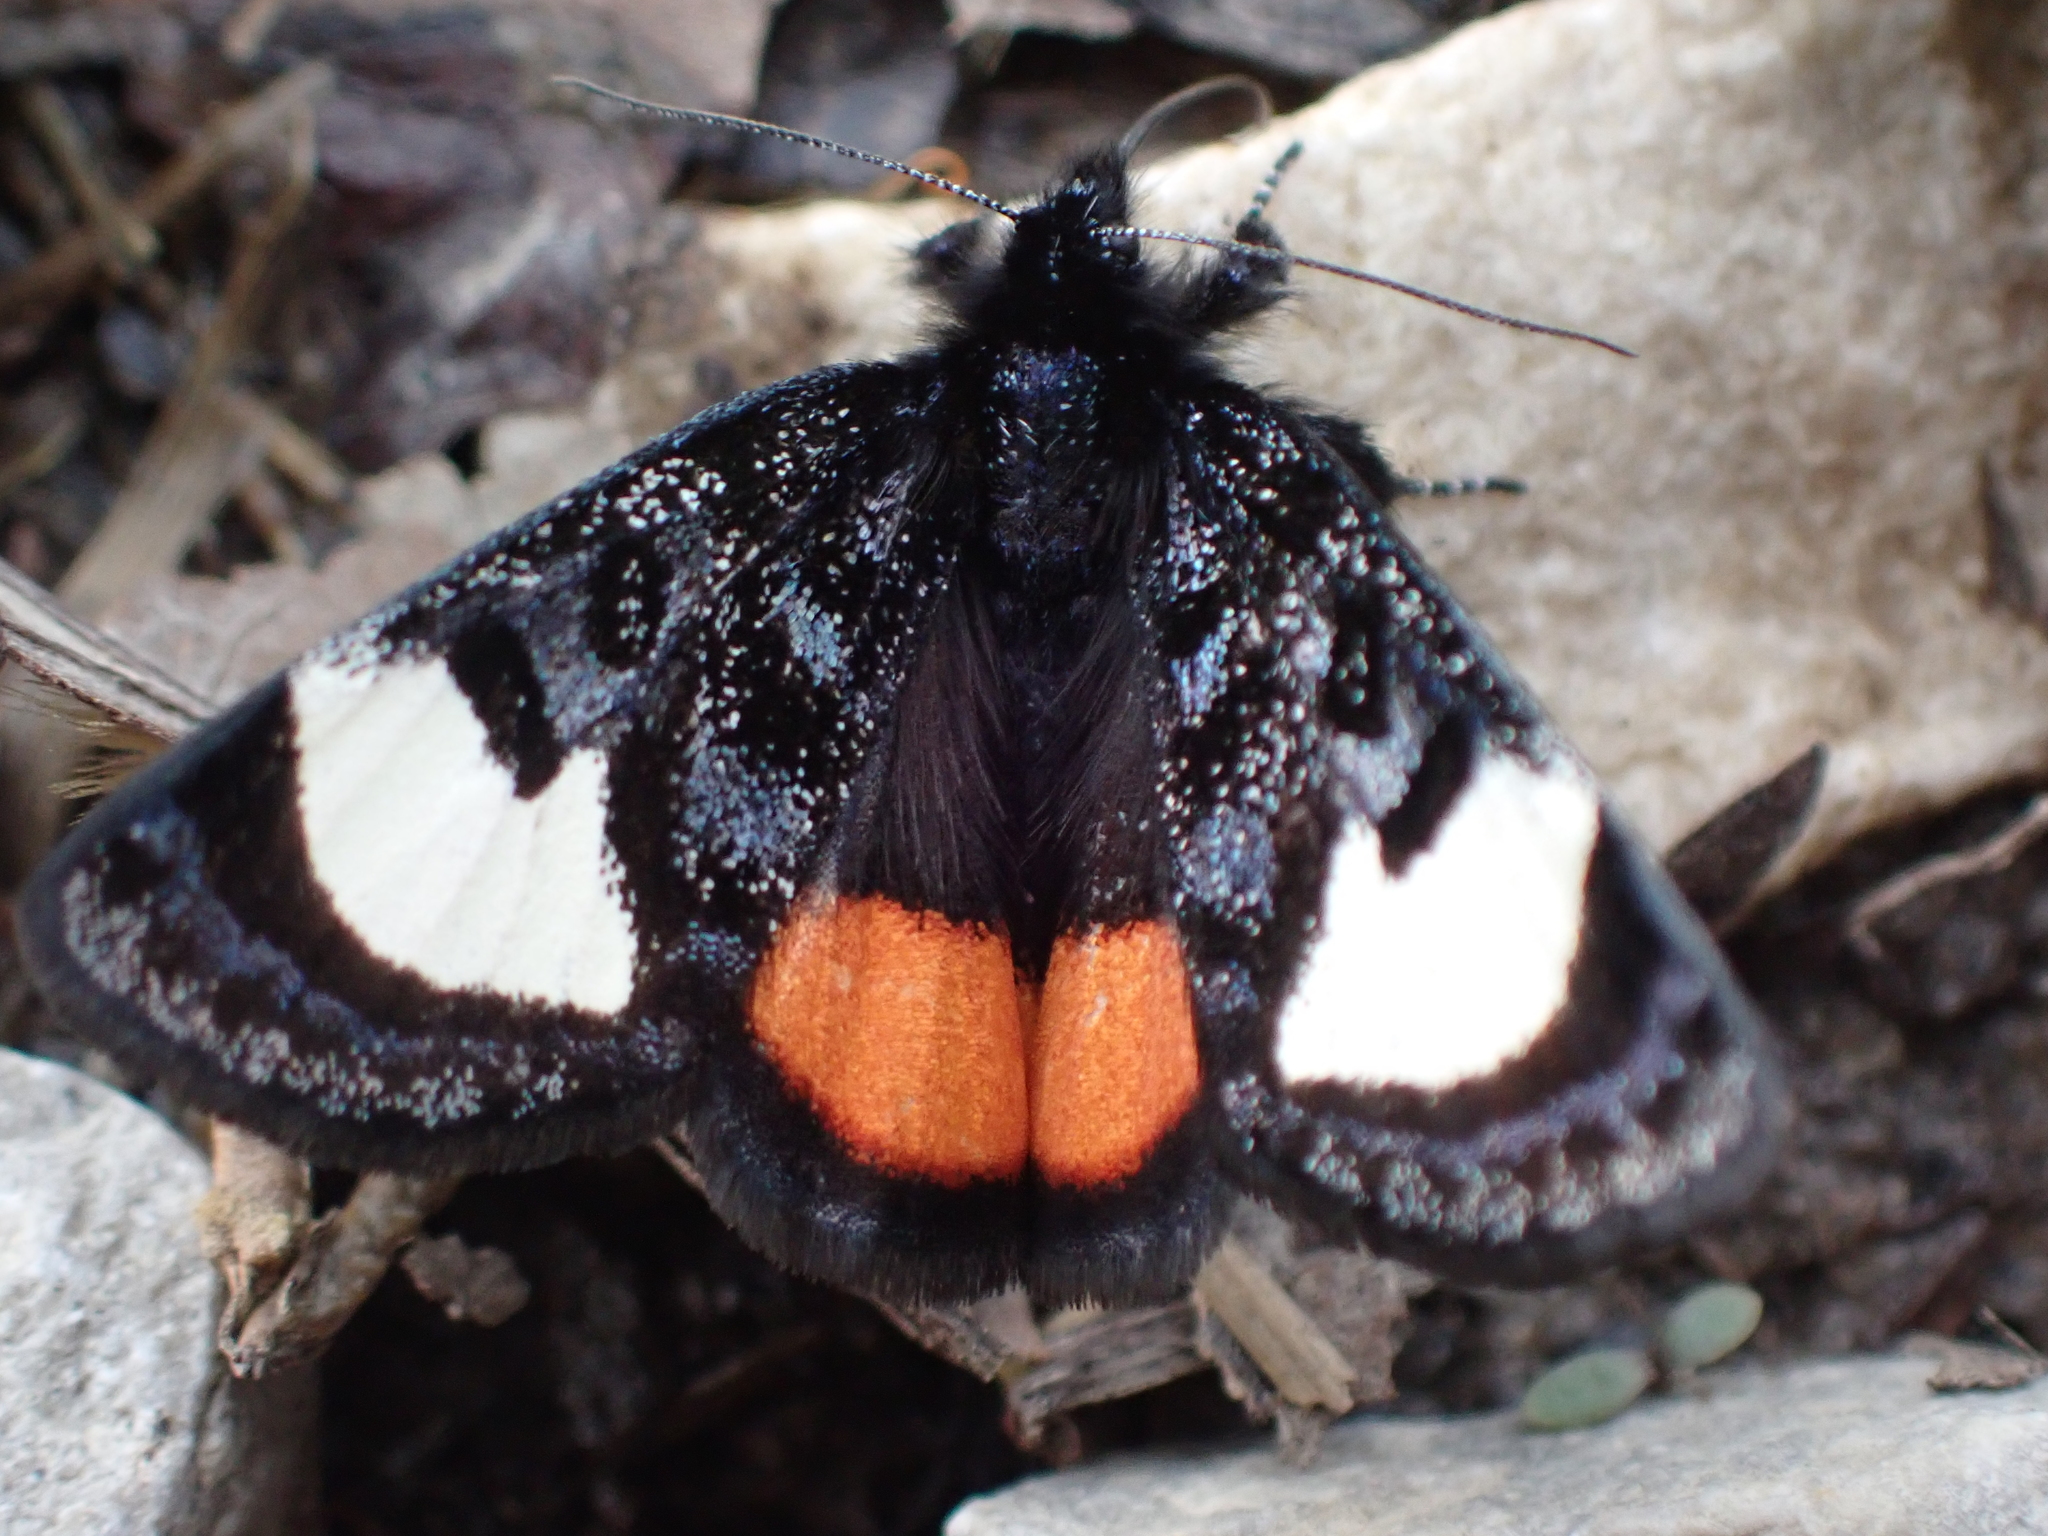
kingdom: Animalia
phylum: Arthropoda
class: Insecta
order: Lepidoptera
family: Noctuidae
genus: Psychomorpha
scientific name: Psychomorpha epimenis
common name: Grapevine epimenis moth
